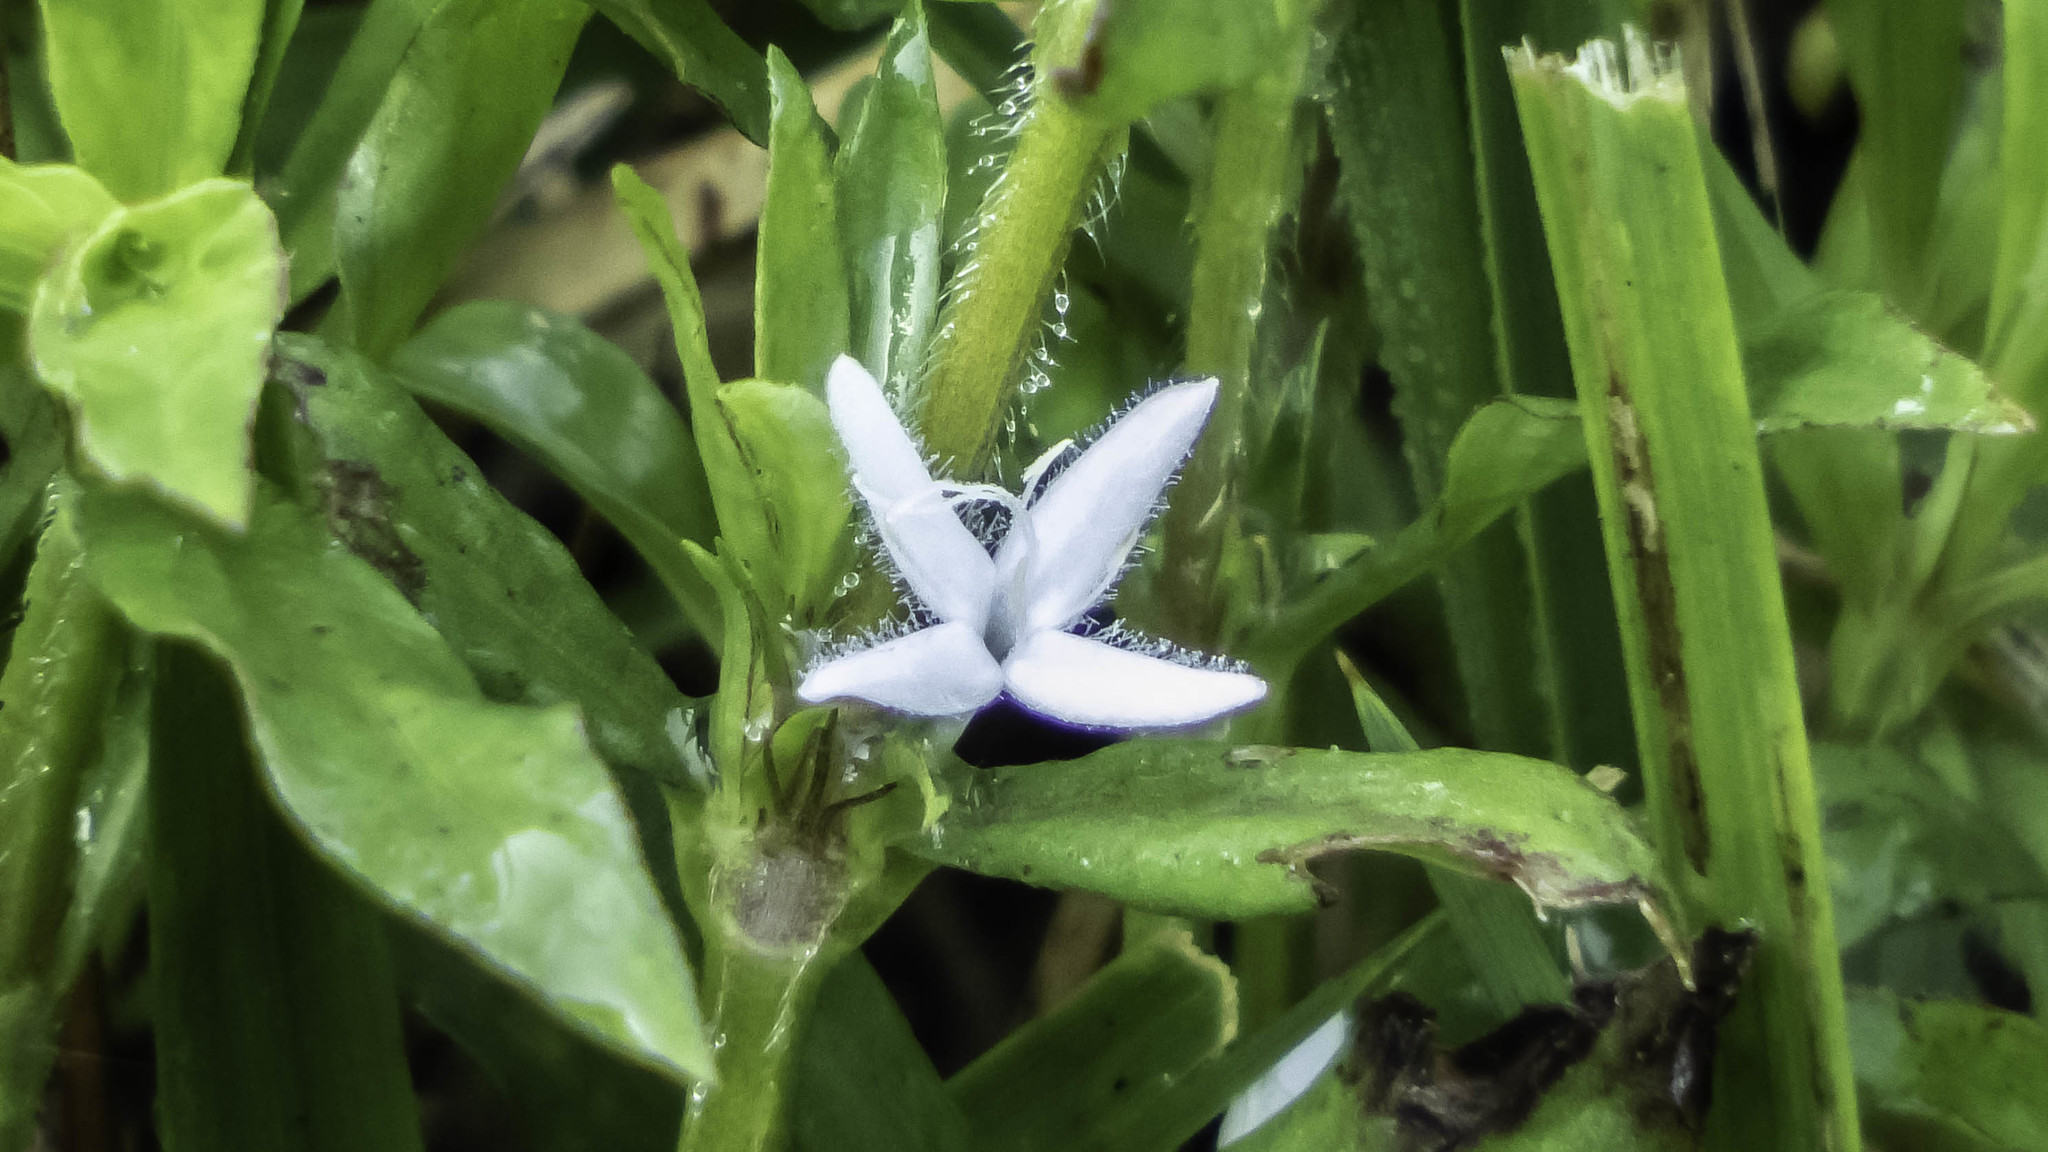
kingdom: Plantae
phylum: Tracheophyta
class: Magnoliopsida
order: Gentianales
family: Rubiaceae
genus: Diodia
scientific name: Diodia virginiana
